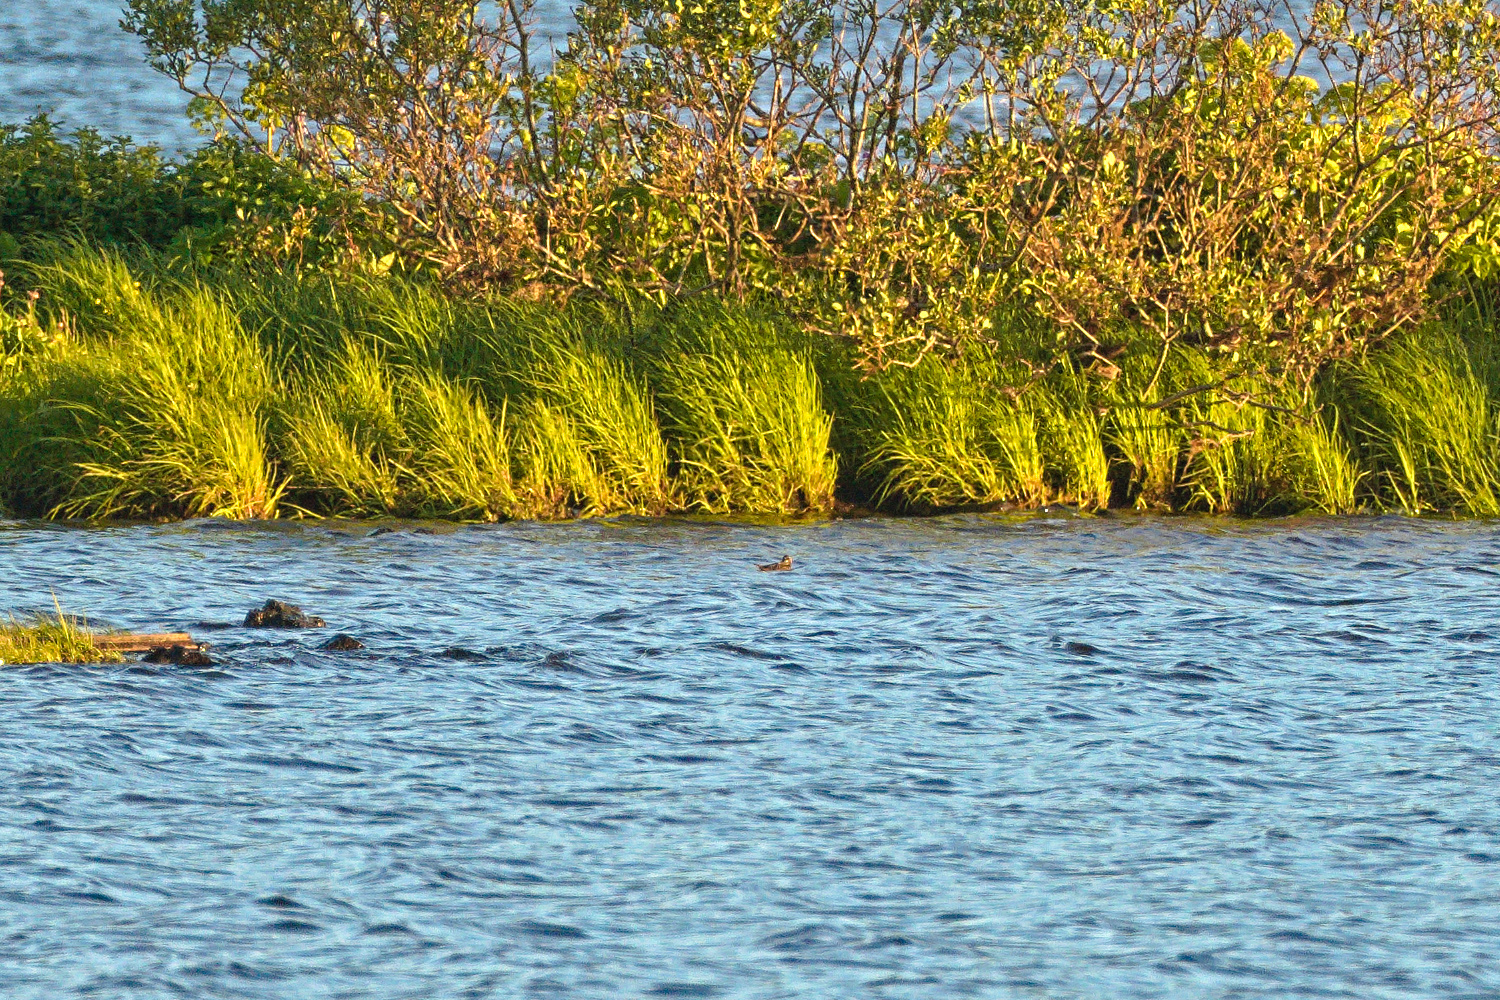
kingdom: Animalia
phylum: Chordata
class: Aves
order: Charadriiformes
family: Scolopacidae
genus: Phalaropus
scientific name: Phalaropus lobatus
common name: Red-necked phalarope
